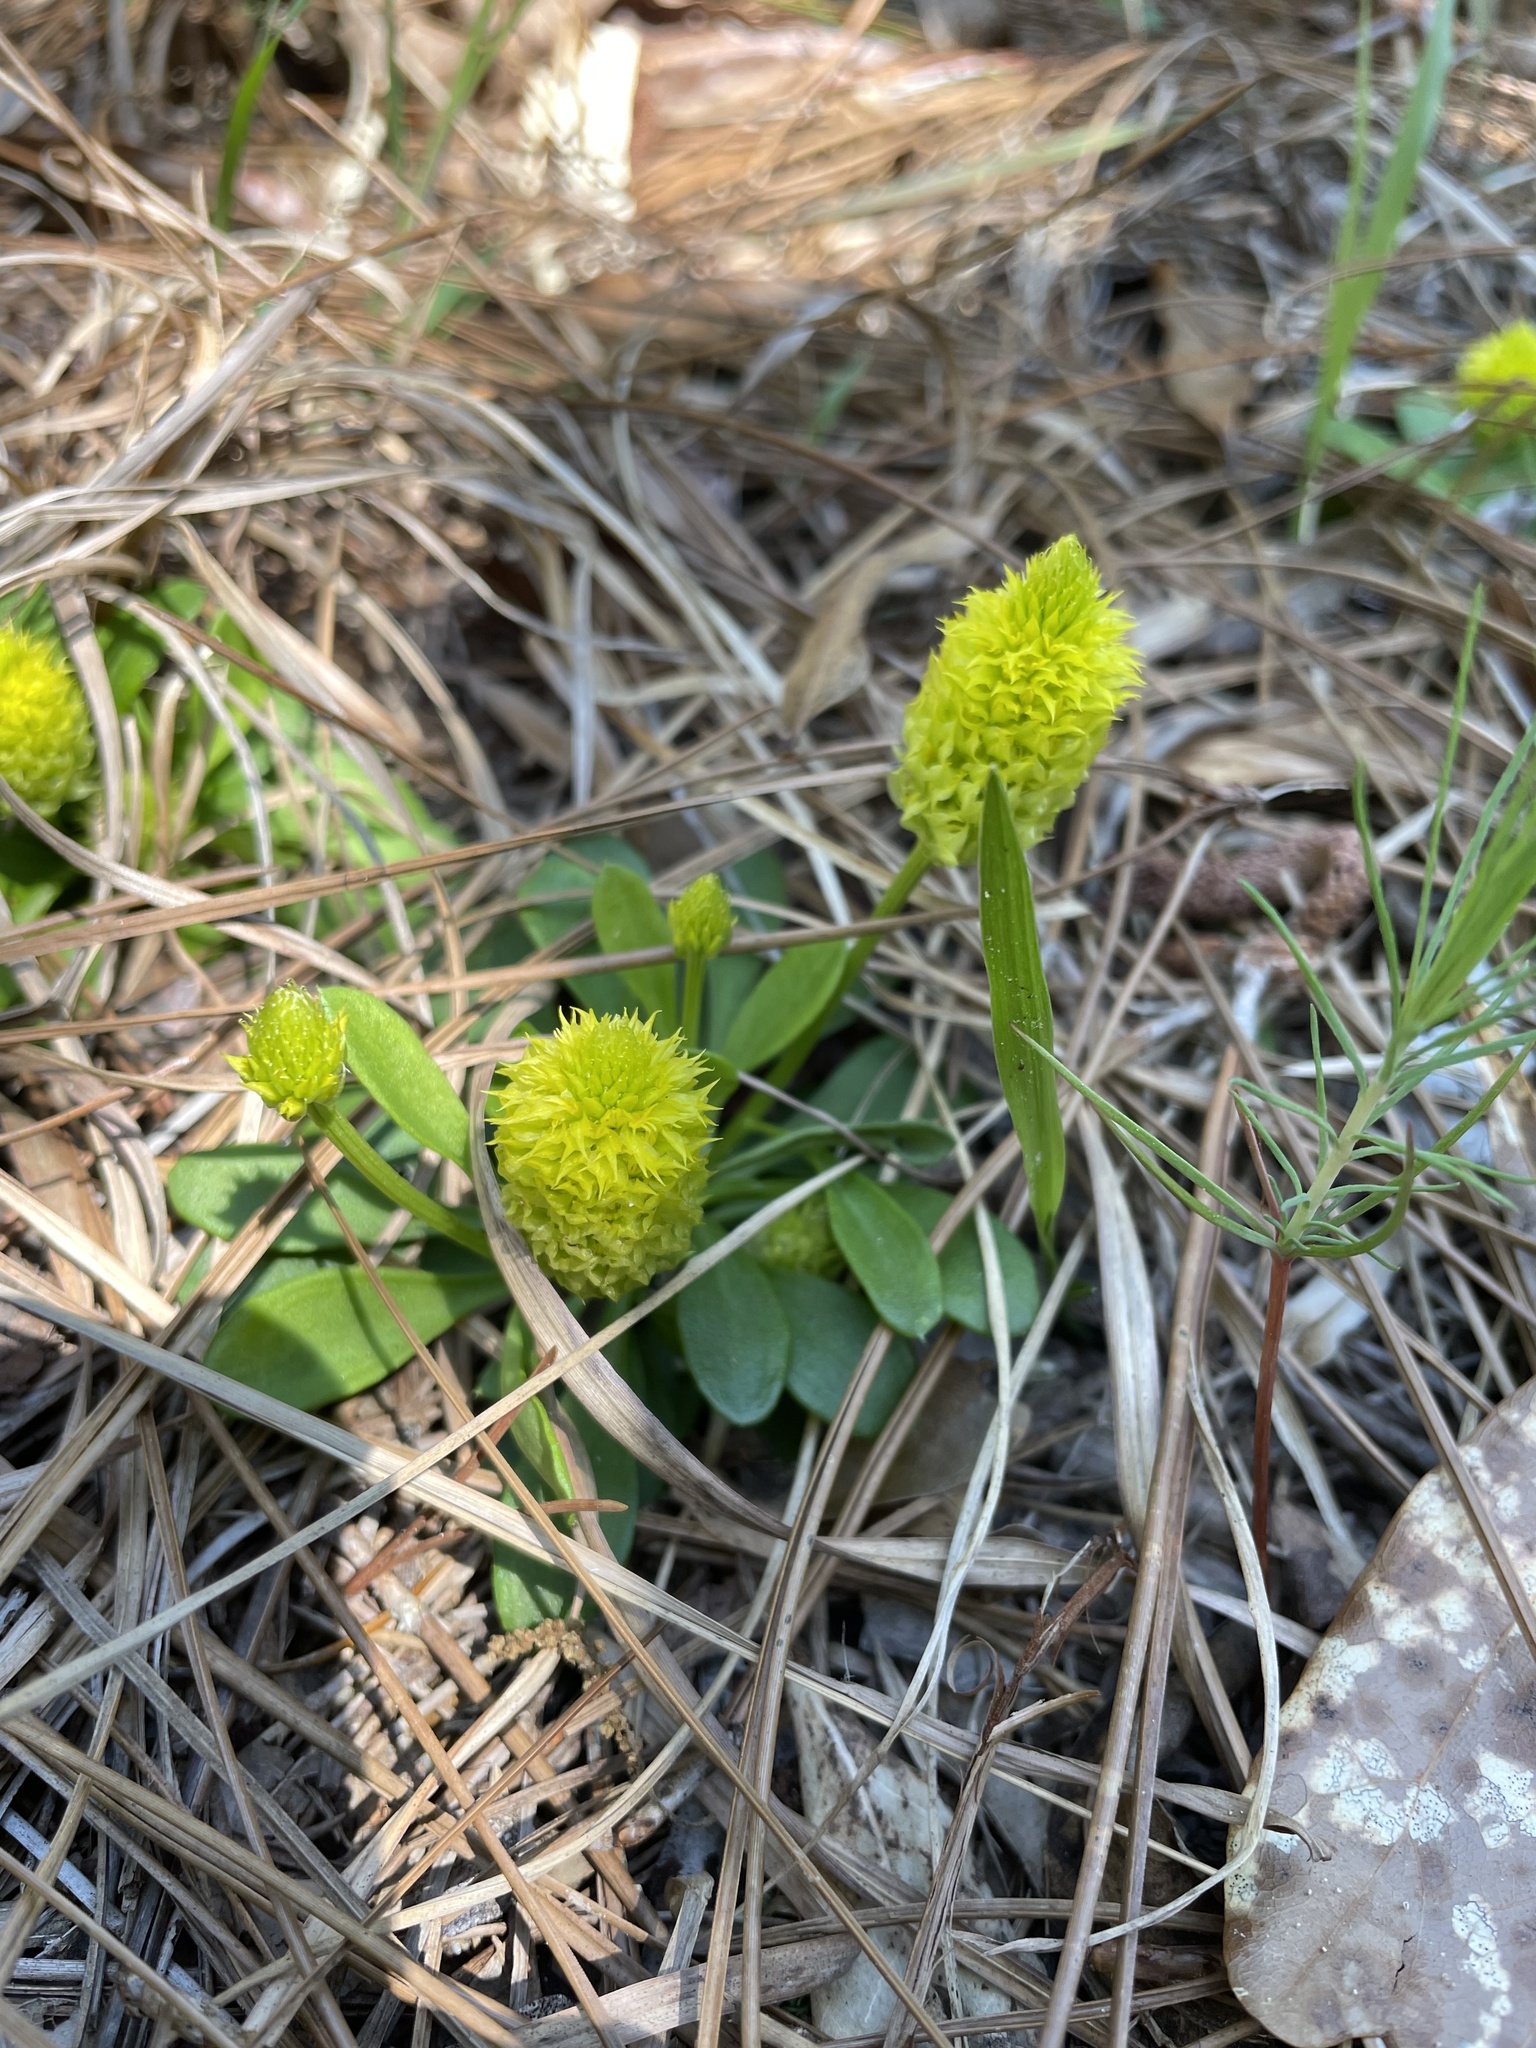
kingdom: Plantae
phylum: Tracheophyta
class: Magnoliopsida
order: Fabales
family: Polygalaceae
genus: Polygala
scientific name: Polygala nana
